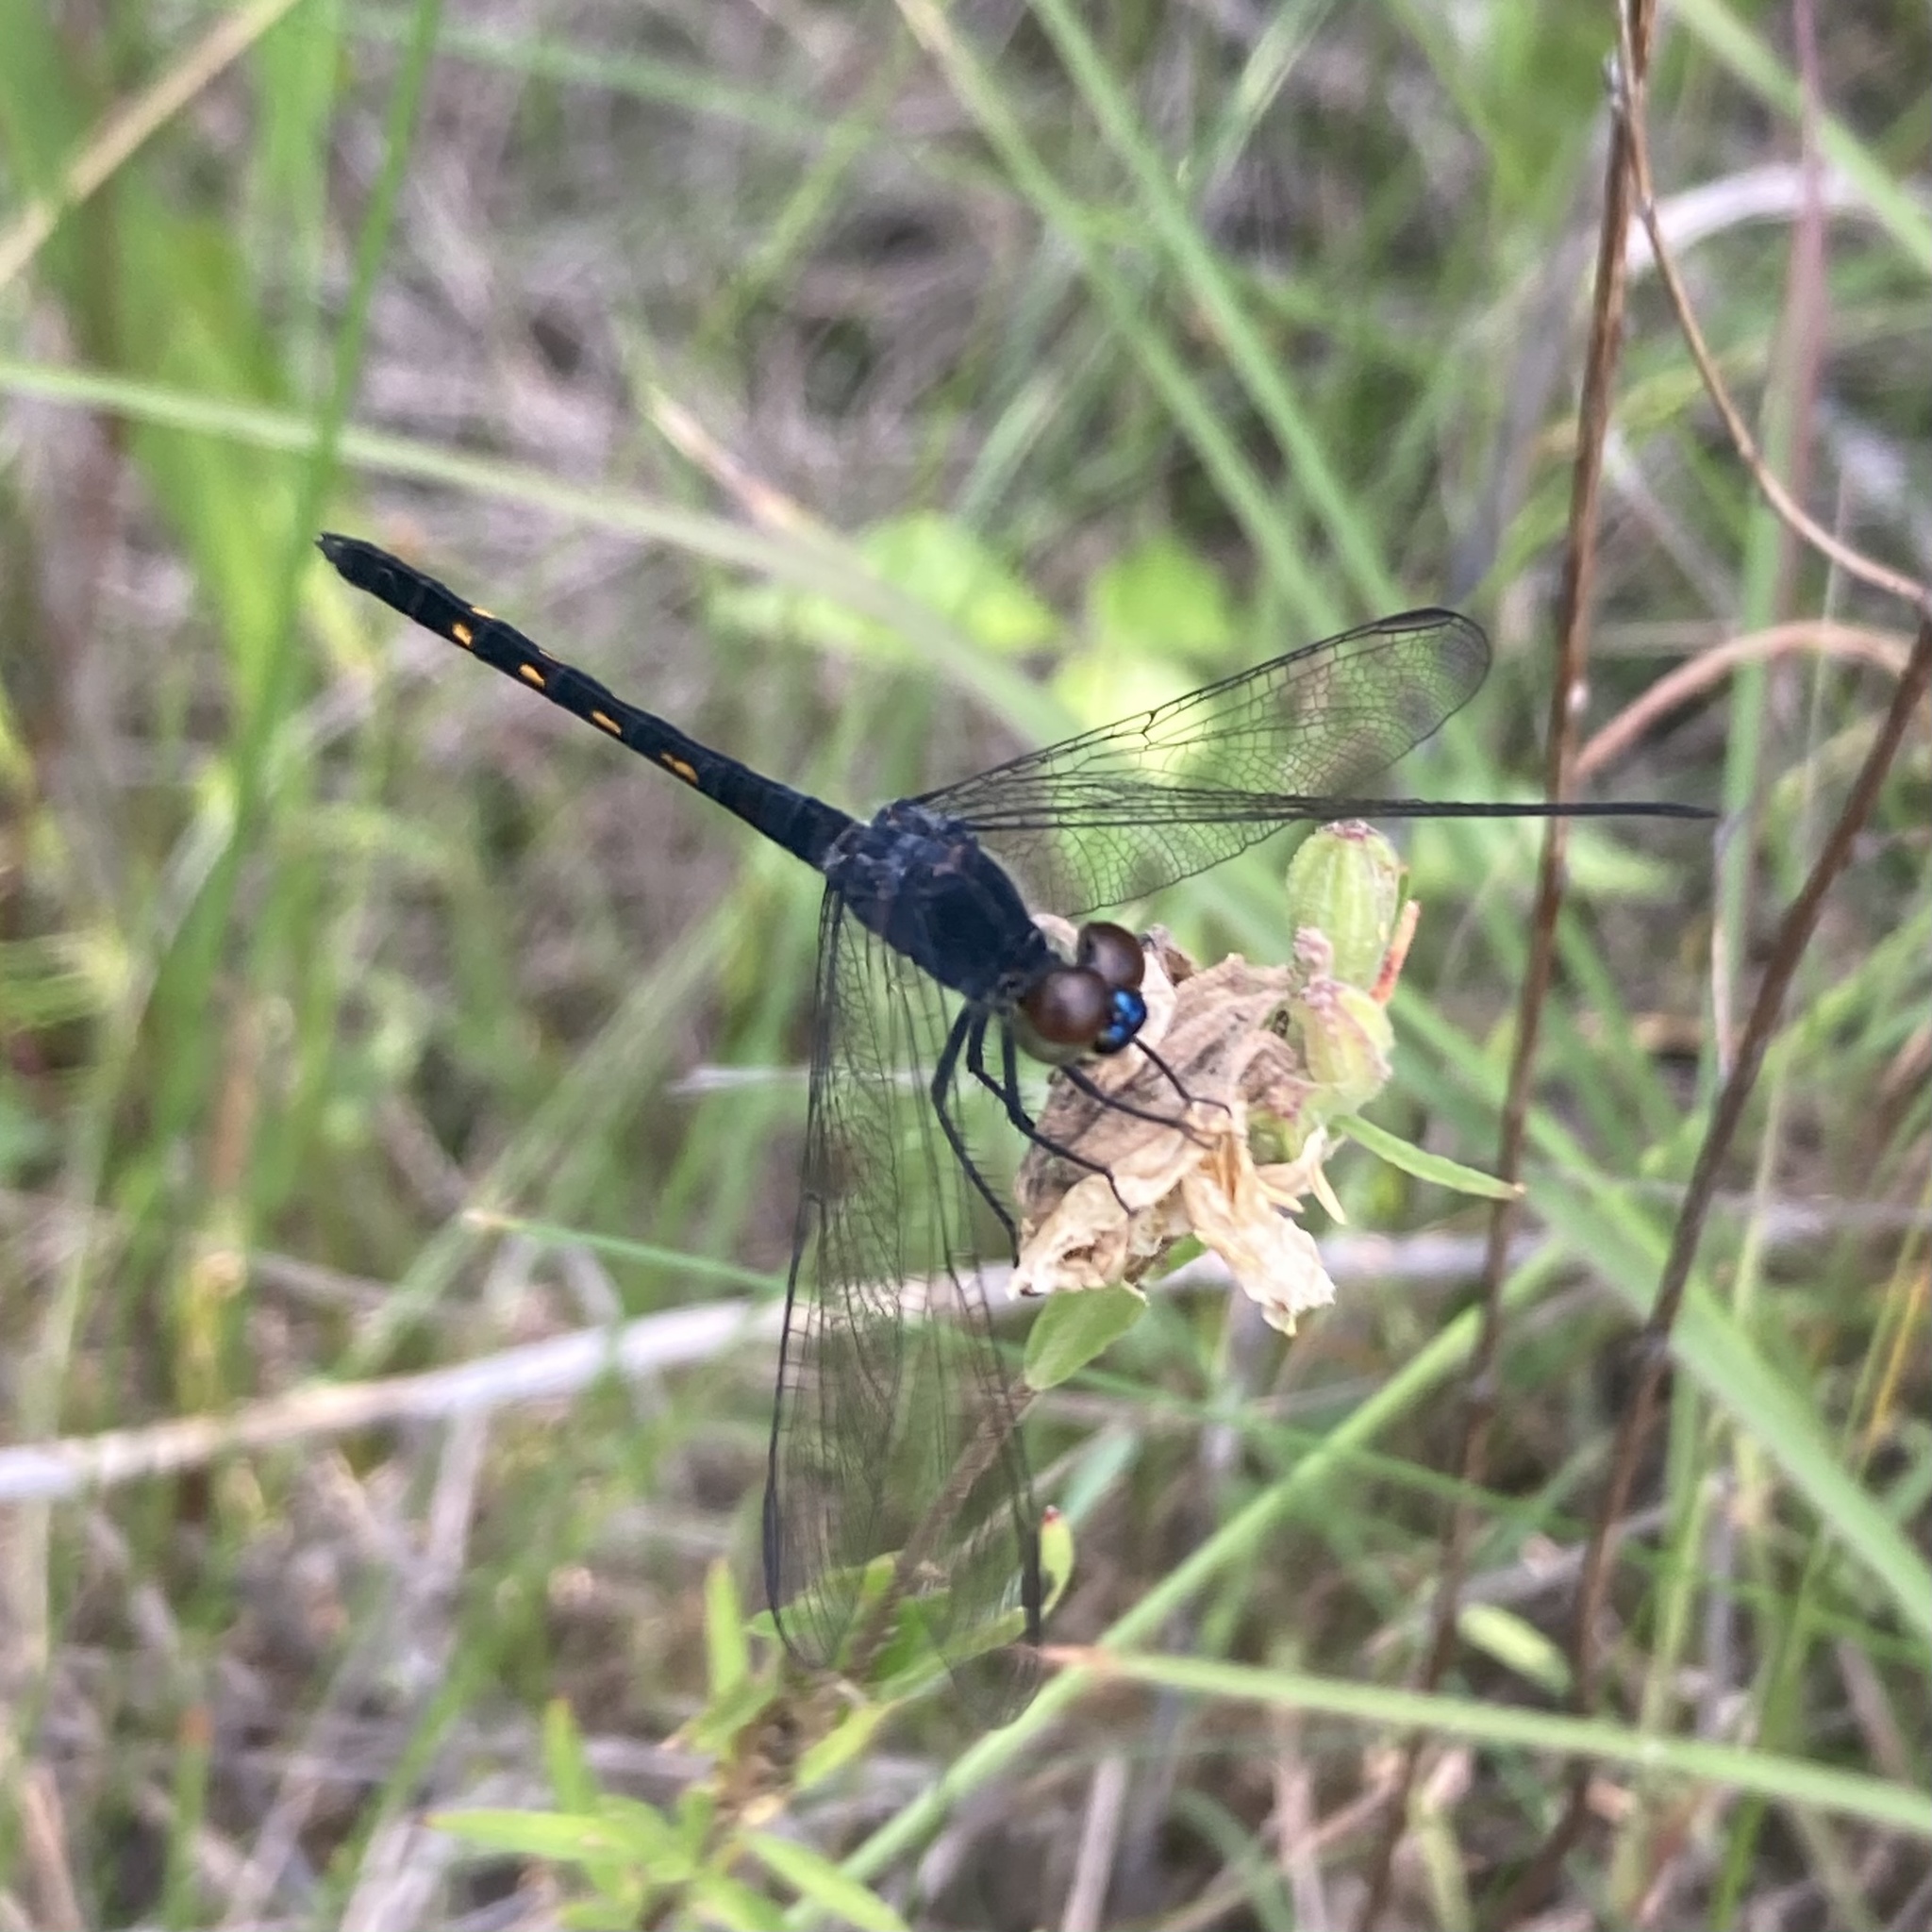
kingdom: Animalia
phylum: Arthropoda
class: Insecta
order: Odonata
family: Libellulidae
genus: Erythrodiplax
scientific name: Erythrodiplax berenice
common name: Seaside dragonlet
